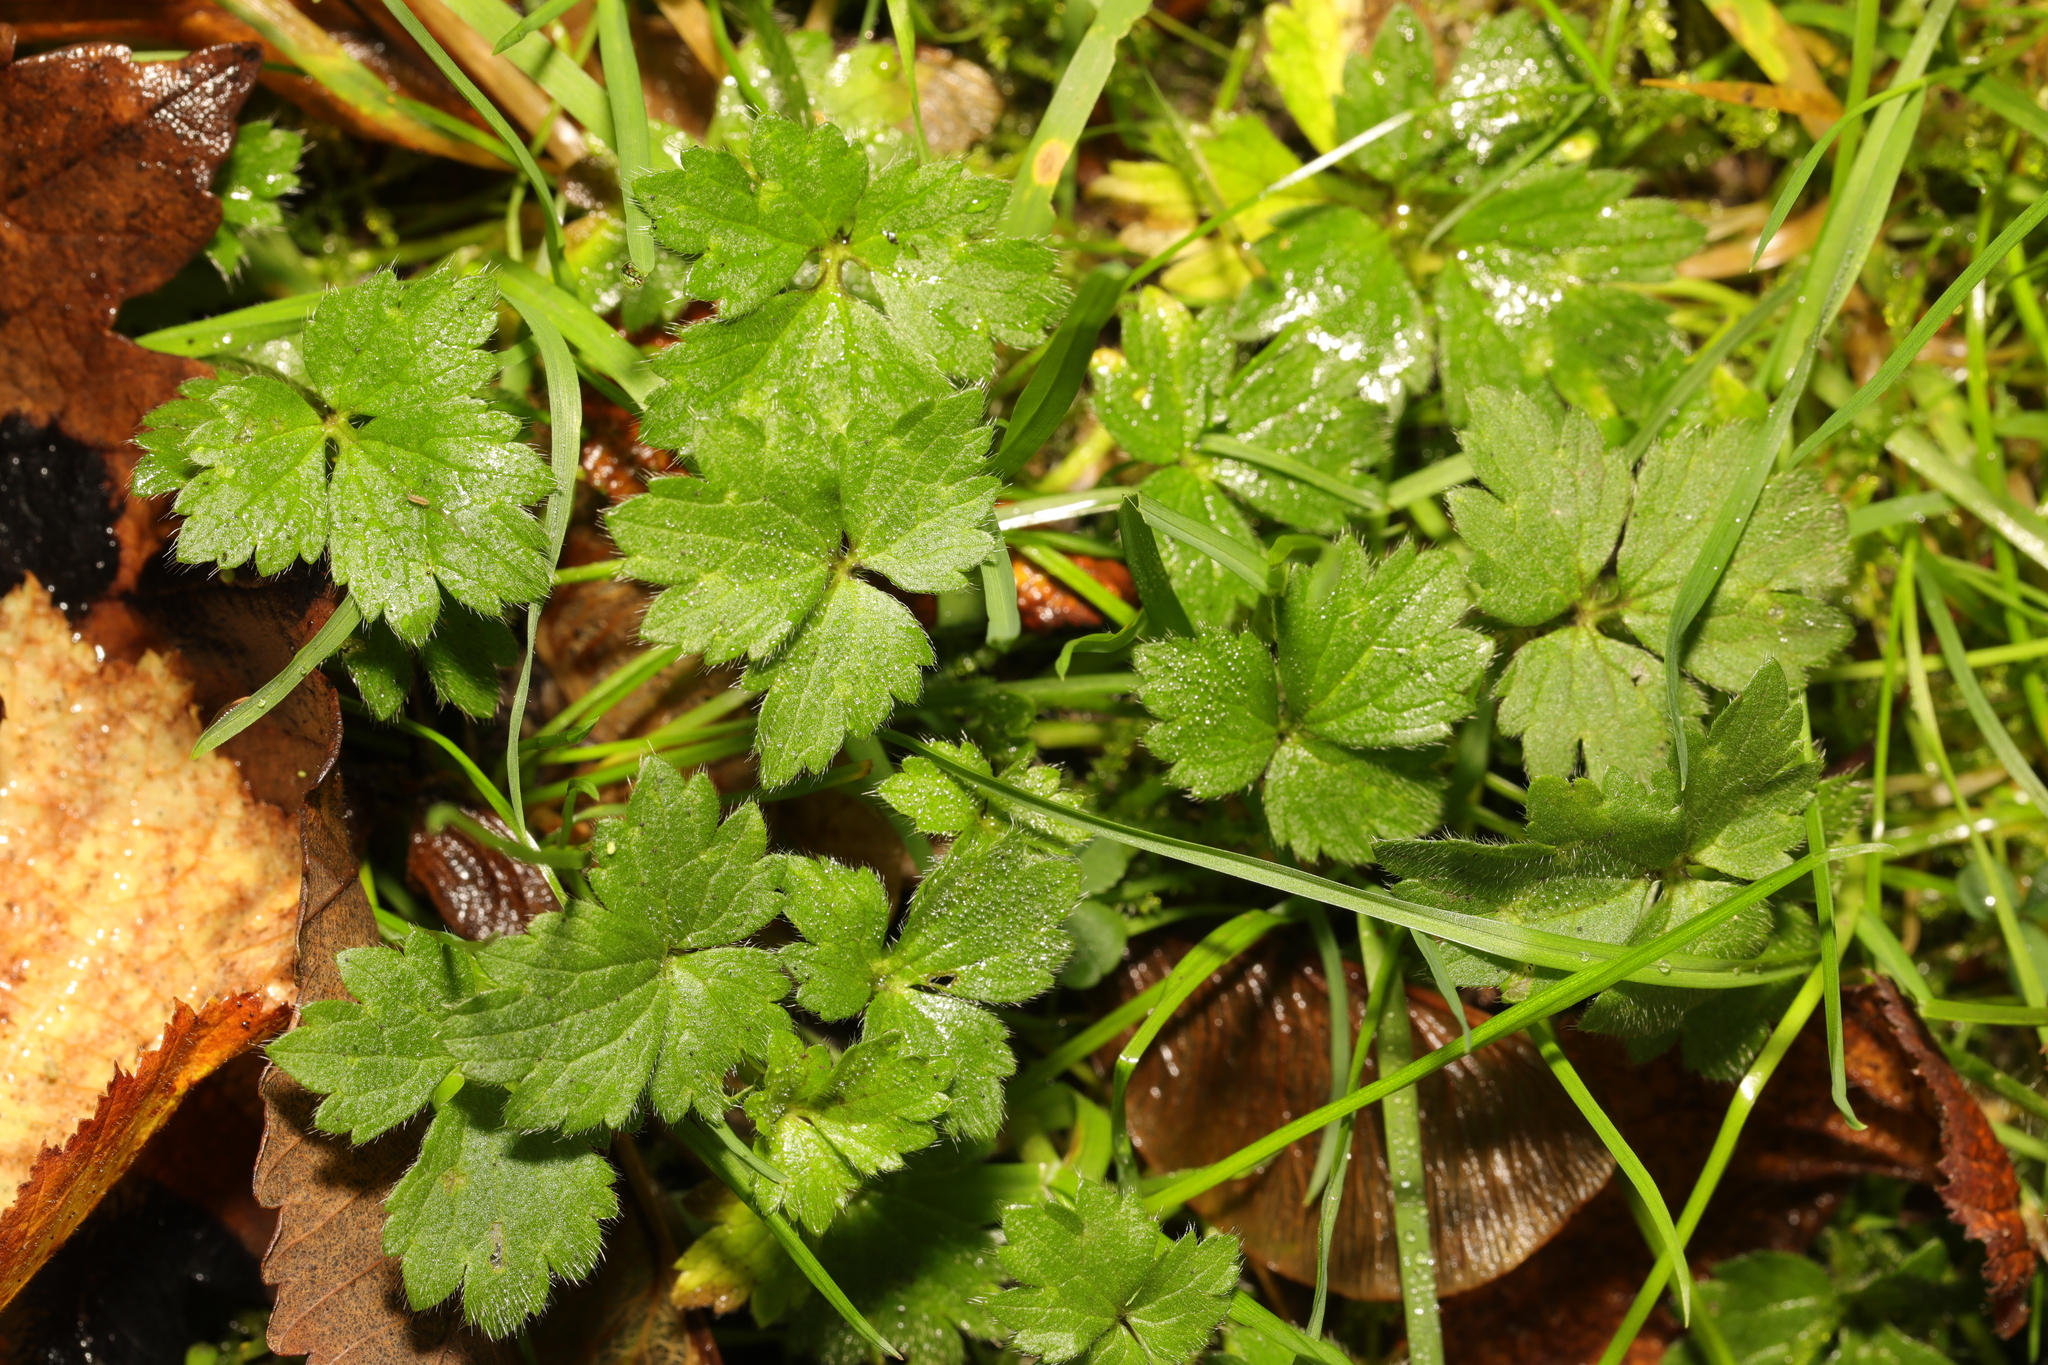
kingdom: Plantae
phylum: Tracheophyta
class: Magnoliopsida
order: Ranunculales
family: Ranunculaceae
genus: Ranunculus
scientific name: Ranunculus repens
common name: Creeping buttercup
